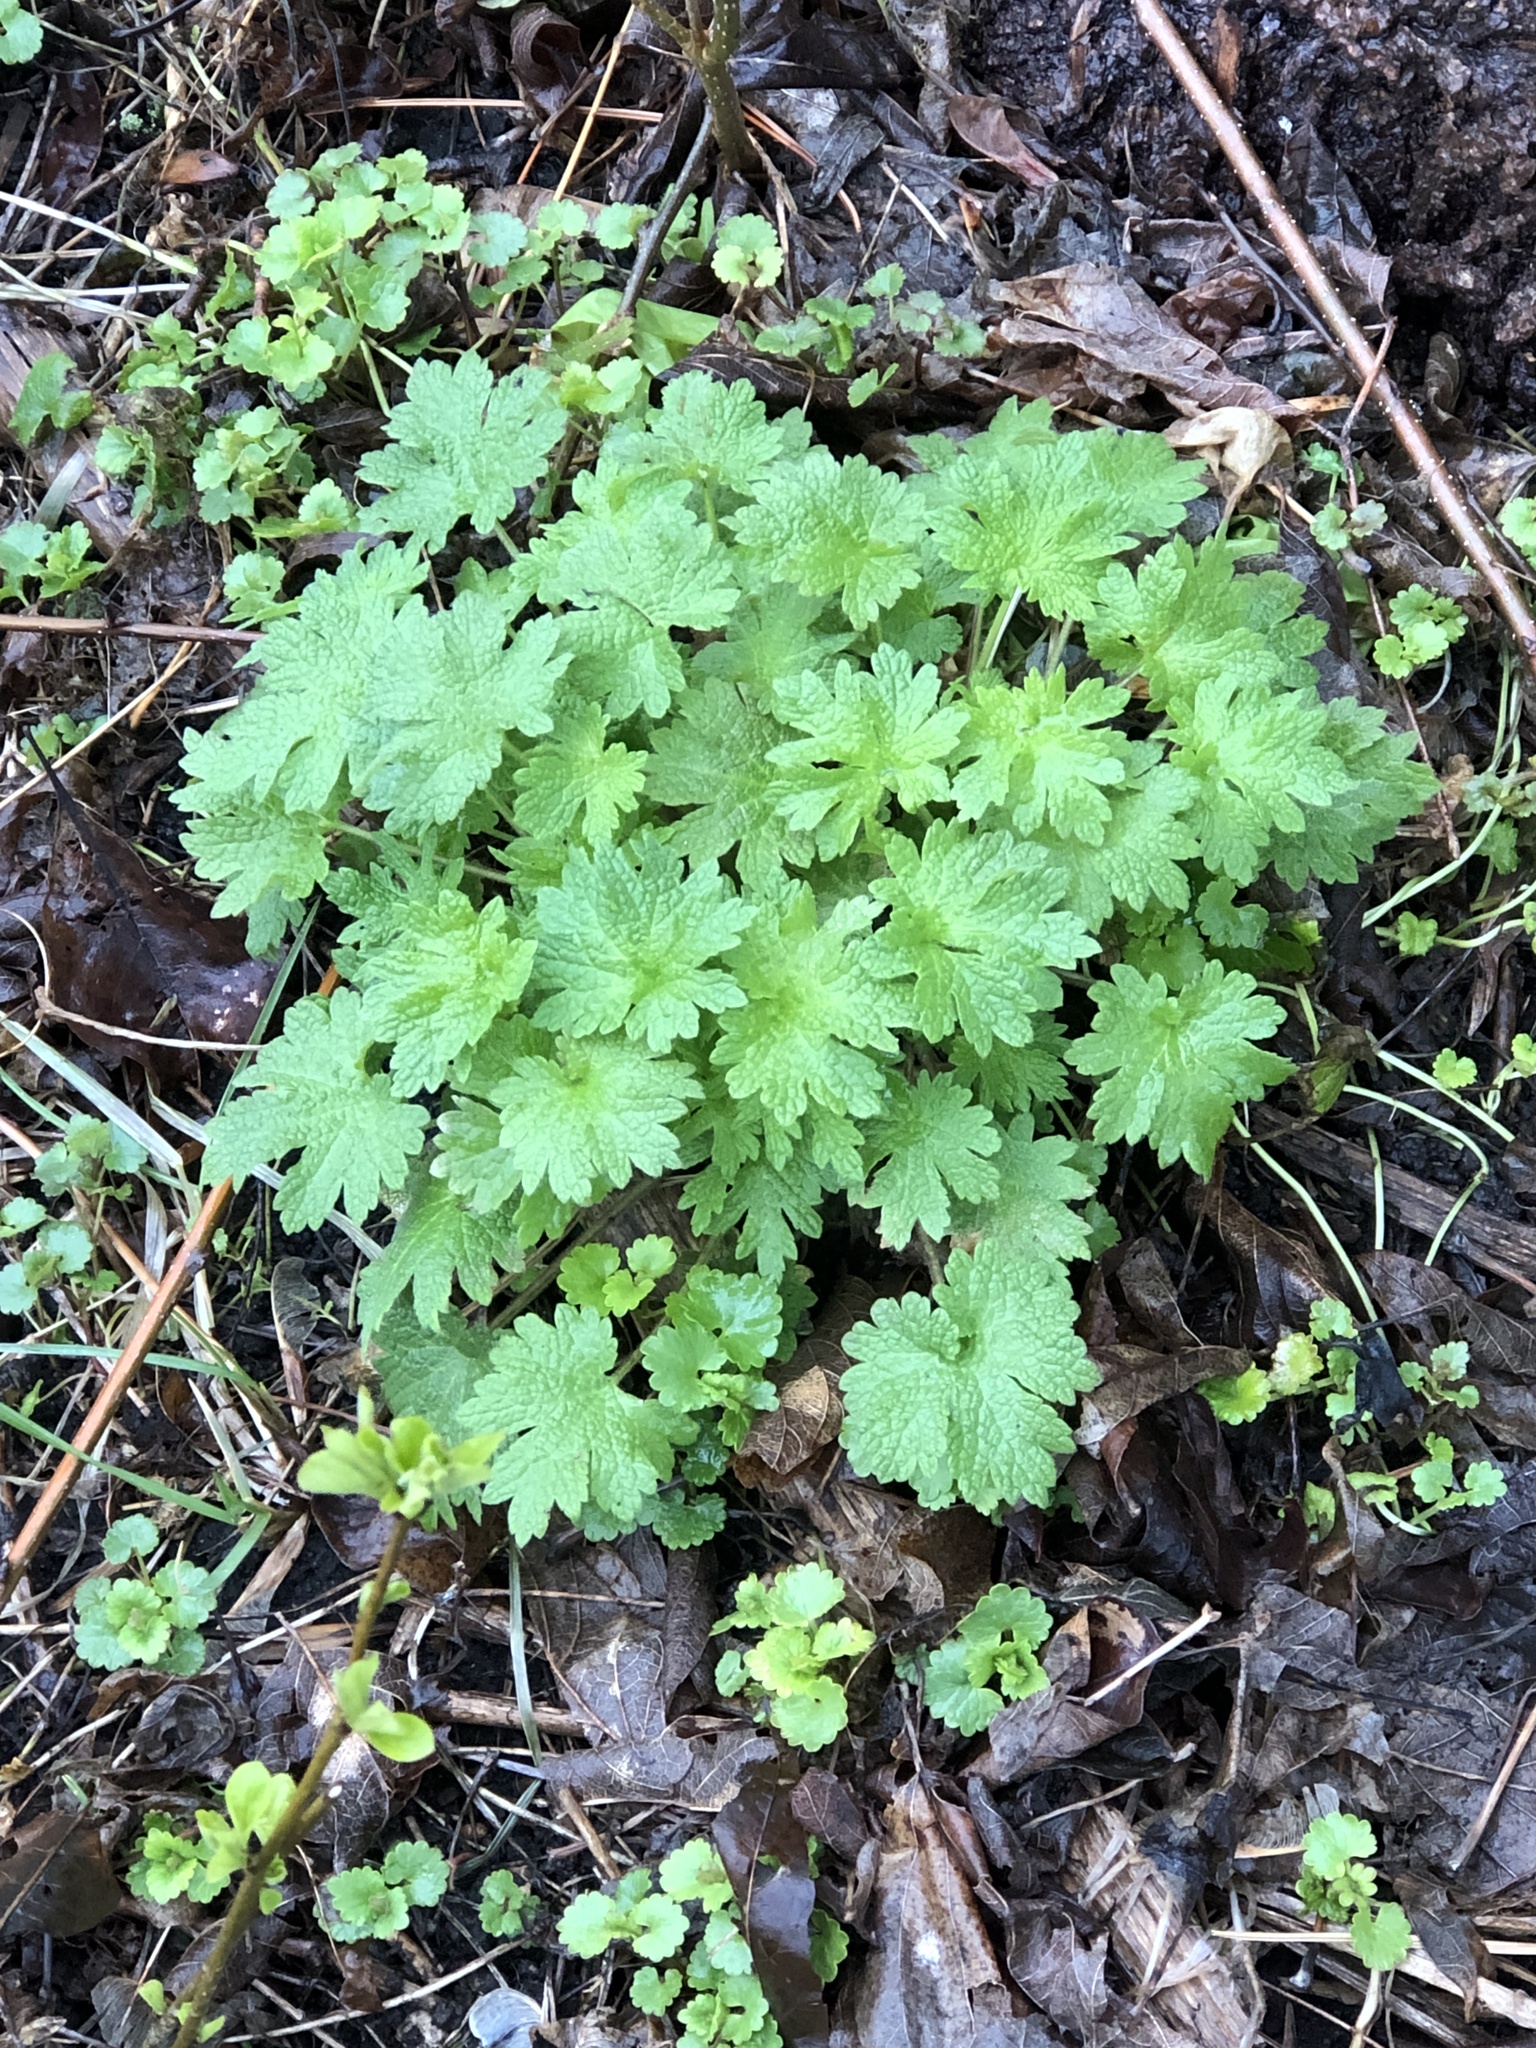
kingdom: Plantae
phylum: Tracheophyta
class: Magnoliopsida
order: Lamiales
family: Lamiaceae
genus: Leonurus
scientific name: Leonurus cardiaca
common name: Motherwort
